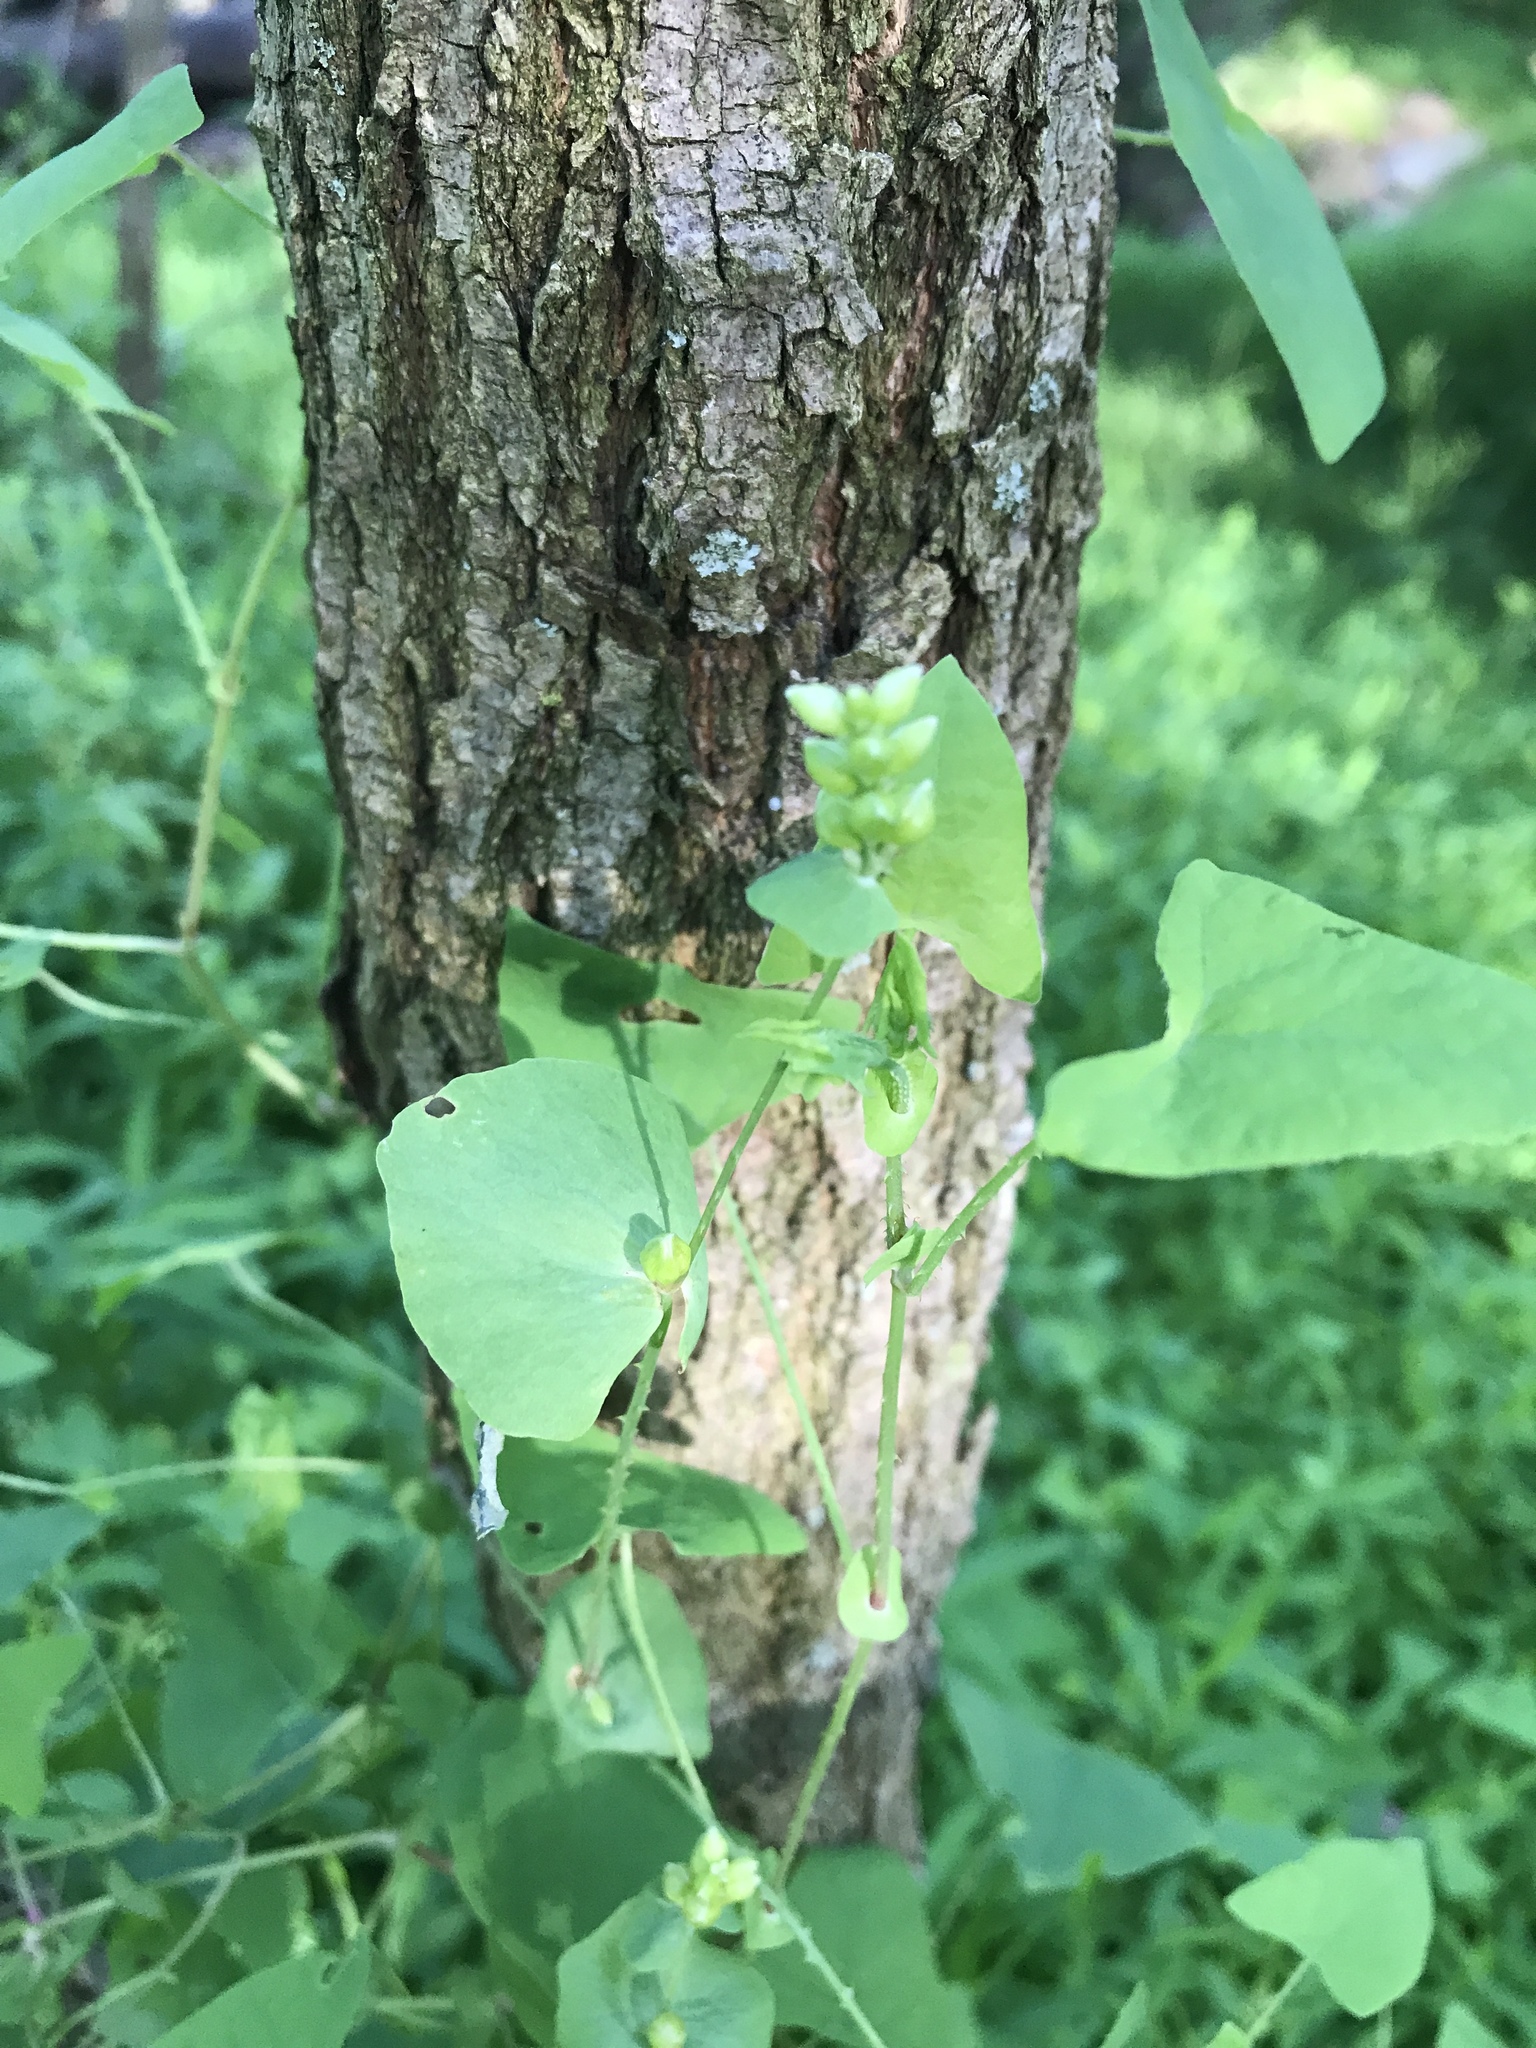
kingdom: Plantae
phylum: Tracheophyta
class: Magnoliopsida
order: Caryophyllales
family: Polygonaceae
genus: Persicaria
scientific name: Persicaria perfoliata
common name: Asiatic tearthumb
